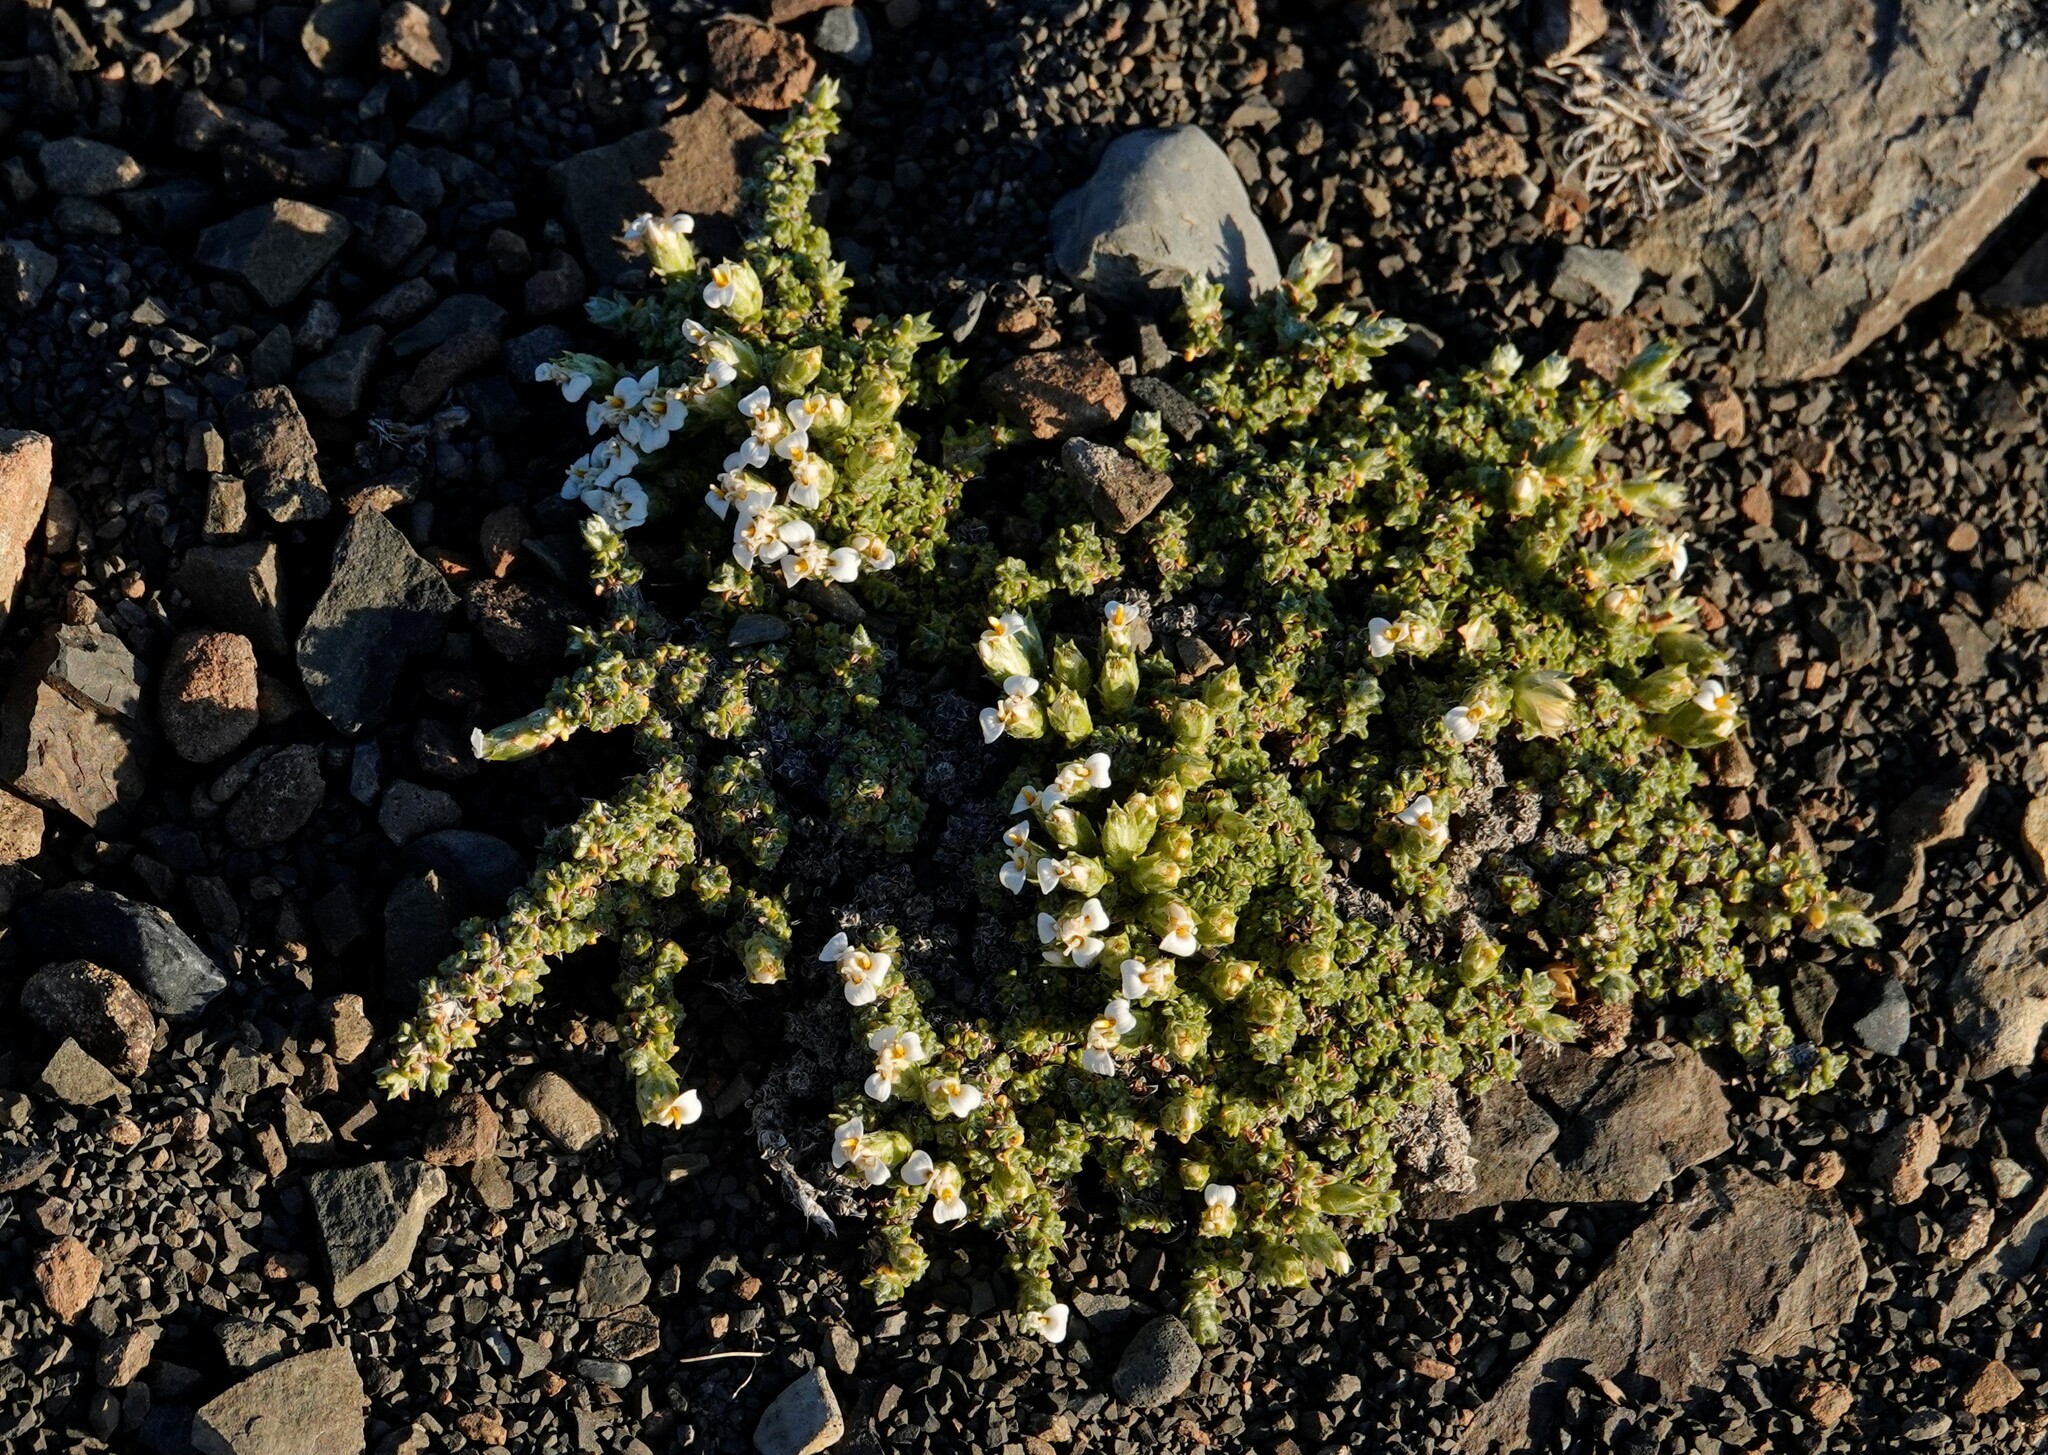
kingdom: Plantae
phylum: Tracheophyta
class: Magnoliopsida
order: Asterales
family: Asteraceae
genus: Nassauvia
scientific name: Nassauvia glomerulosa
